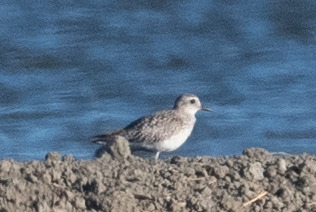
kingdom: Animalia
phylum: Chordata
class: Aves
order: Charadriiformes
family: Charadriidae
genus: Pluvialis
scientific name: Pluvialis squatarola
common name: Grey plover
